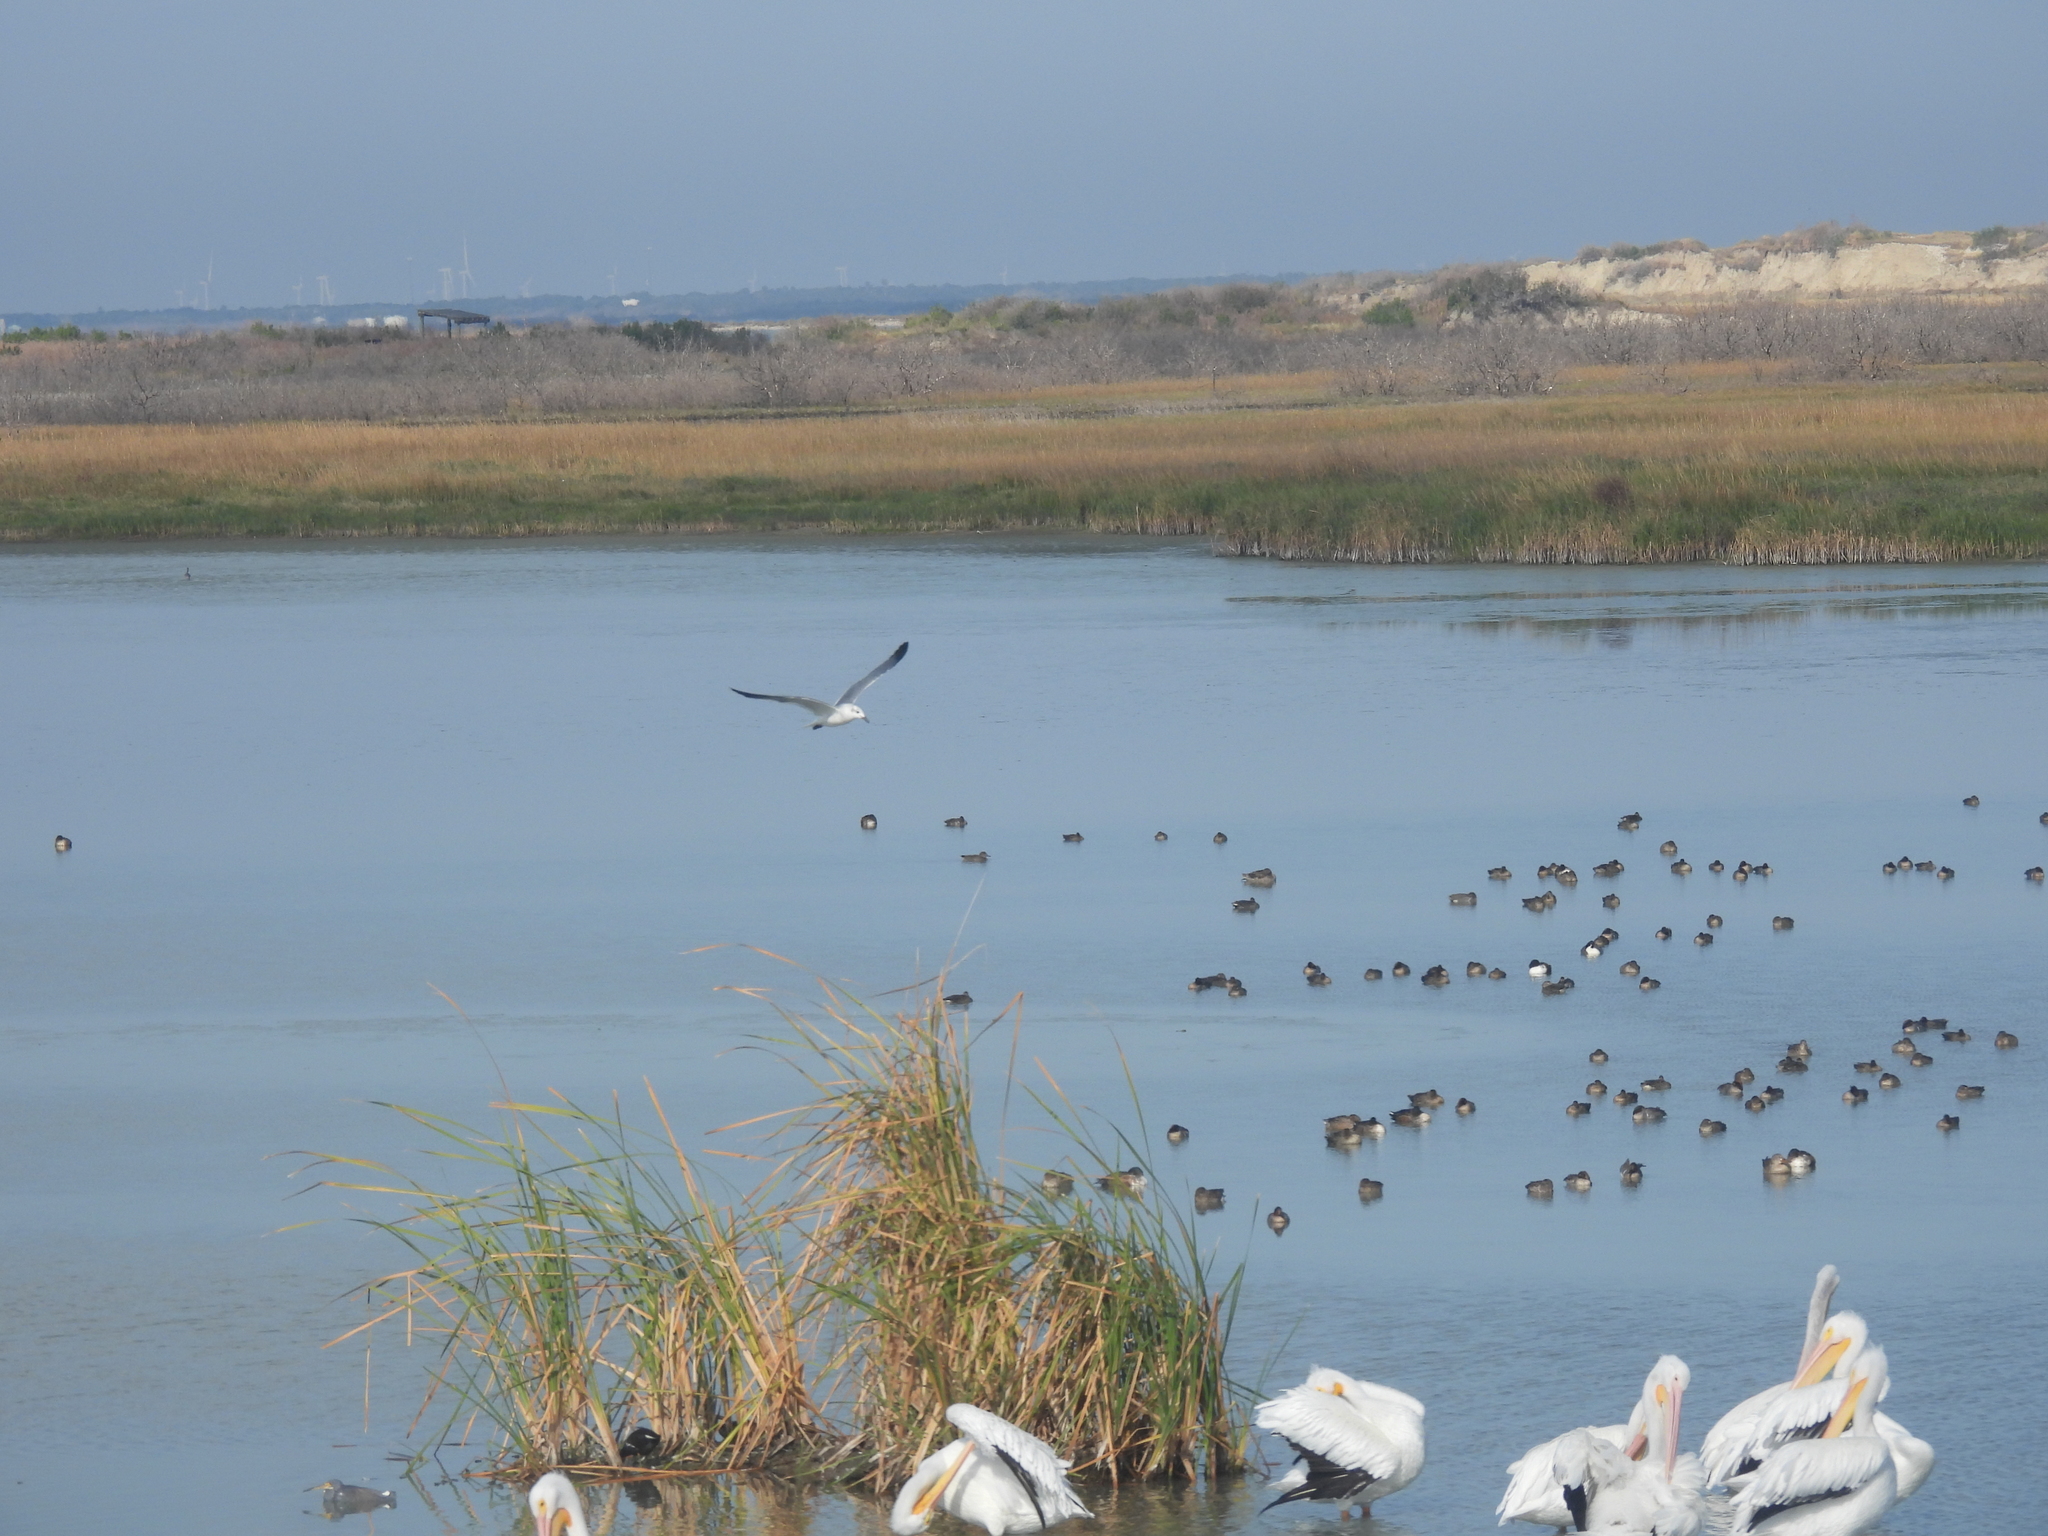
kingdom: Animalia
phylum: Chordata
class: Aves
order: Pelecaniformes
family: Pelecanidae
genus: Pelecanus
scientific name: Pelecanus erythrorhynchos
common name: American white pelican
